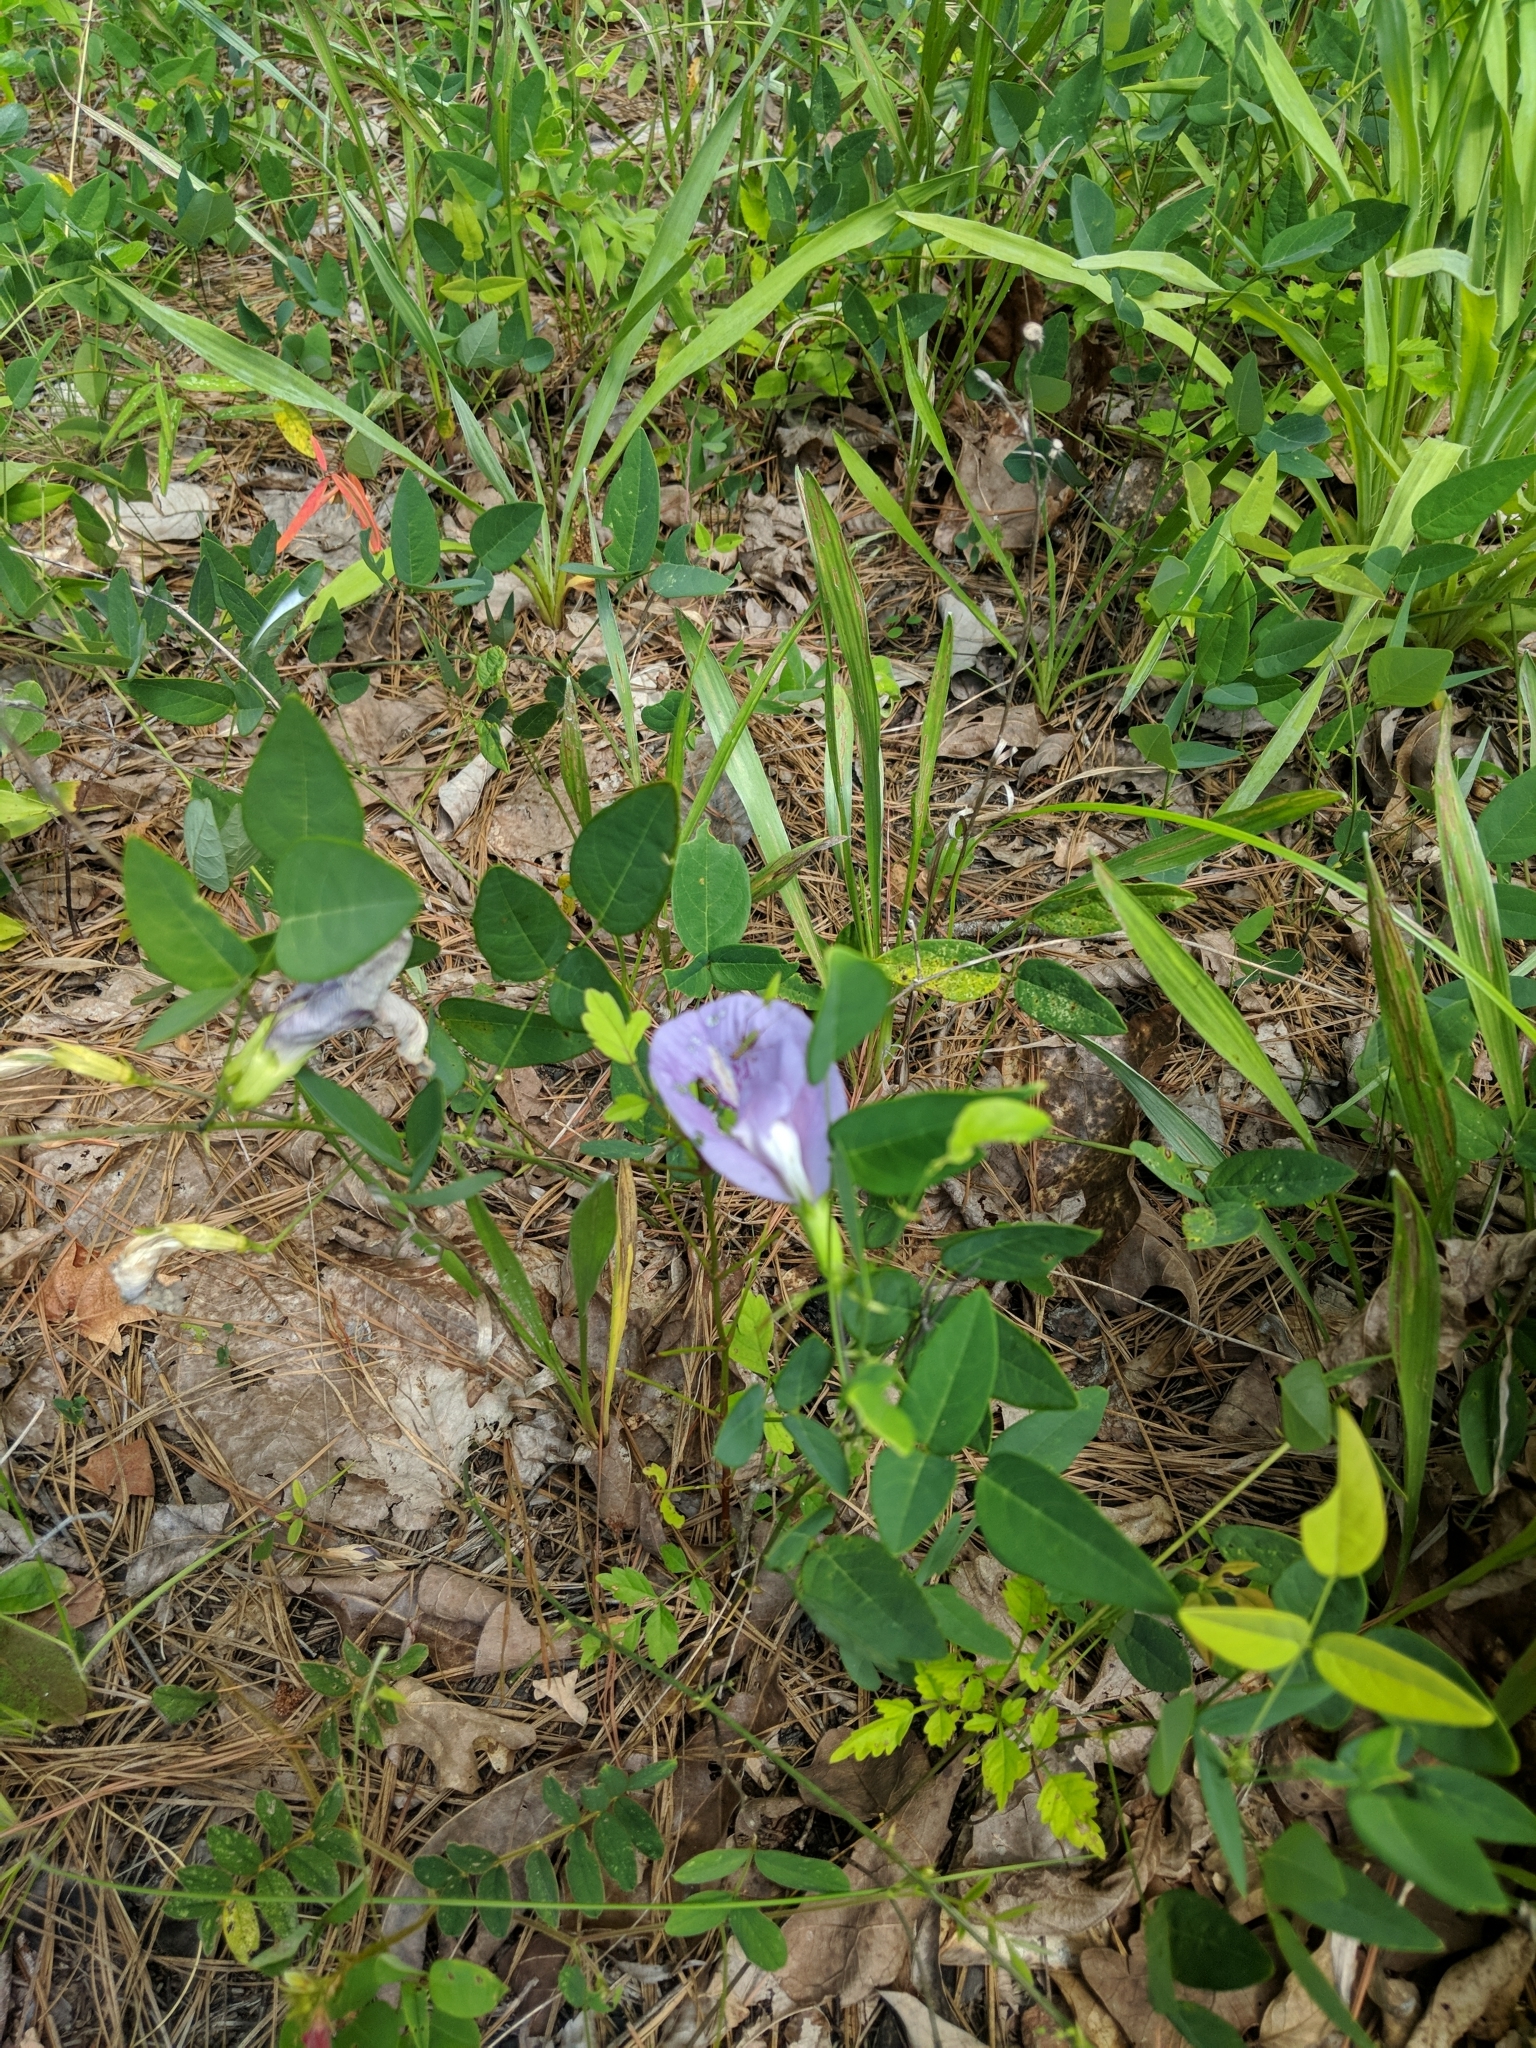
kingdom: Plantae
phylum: Tracheophyta
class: Magnoliopsida
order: Fabales
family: Fabaceae
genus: Clitoria
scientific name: Clitoria mariana
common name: Butterfly-pea
